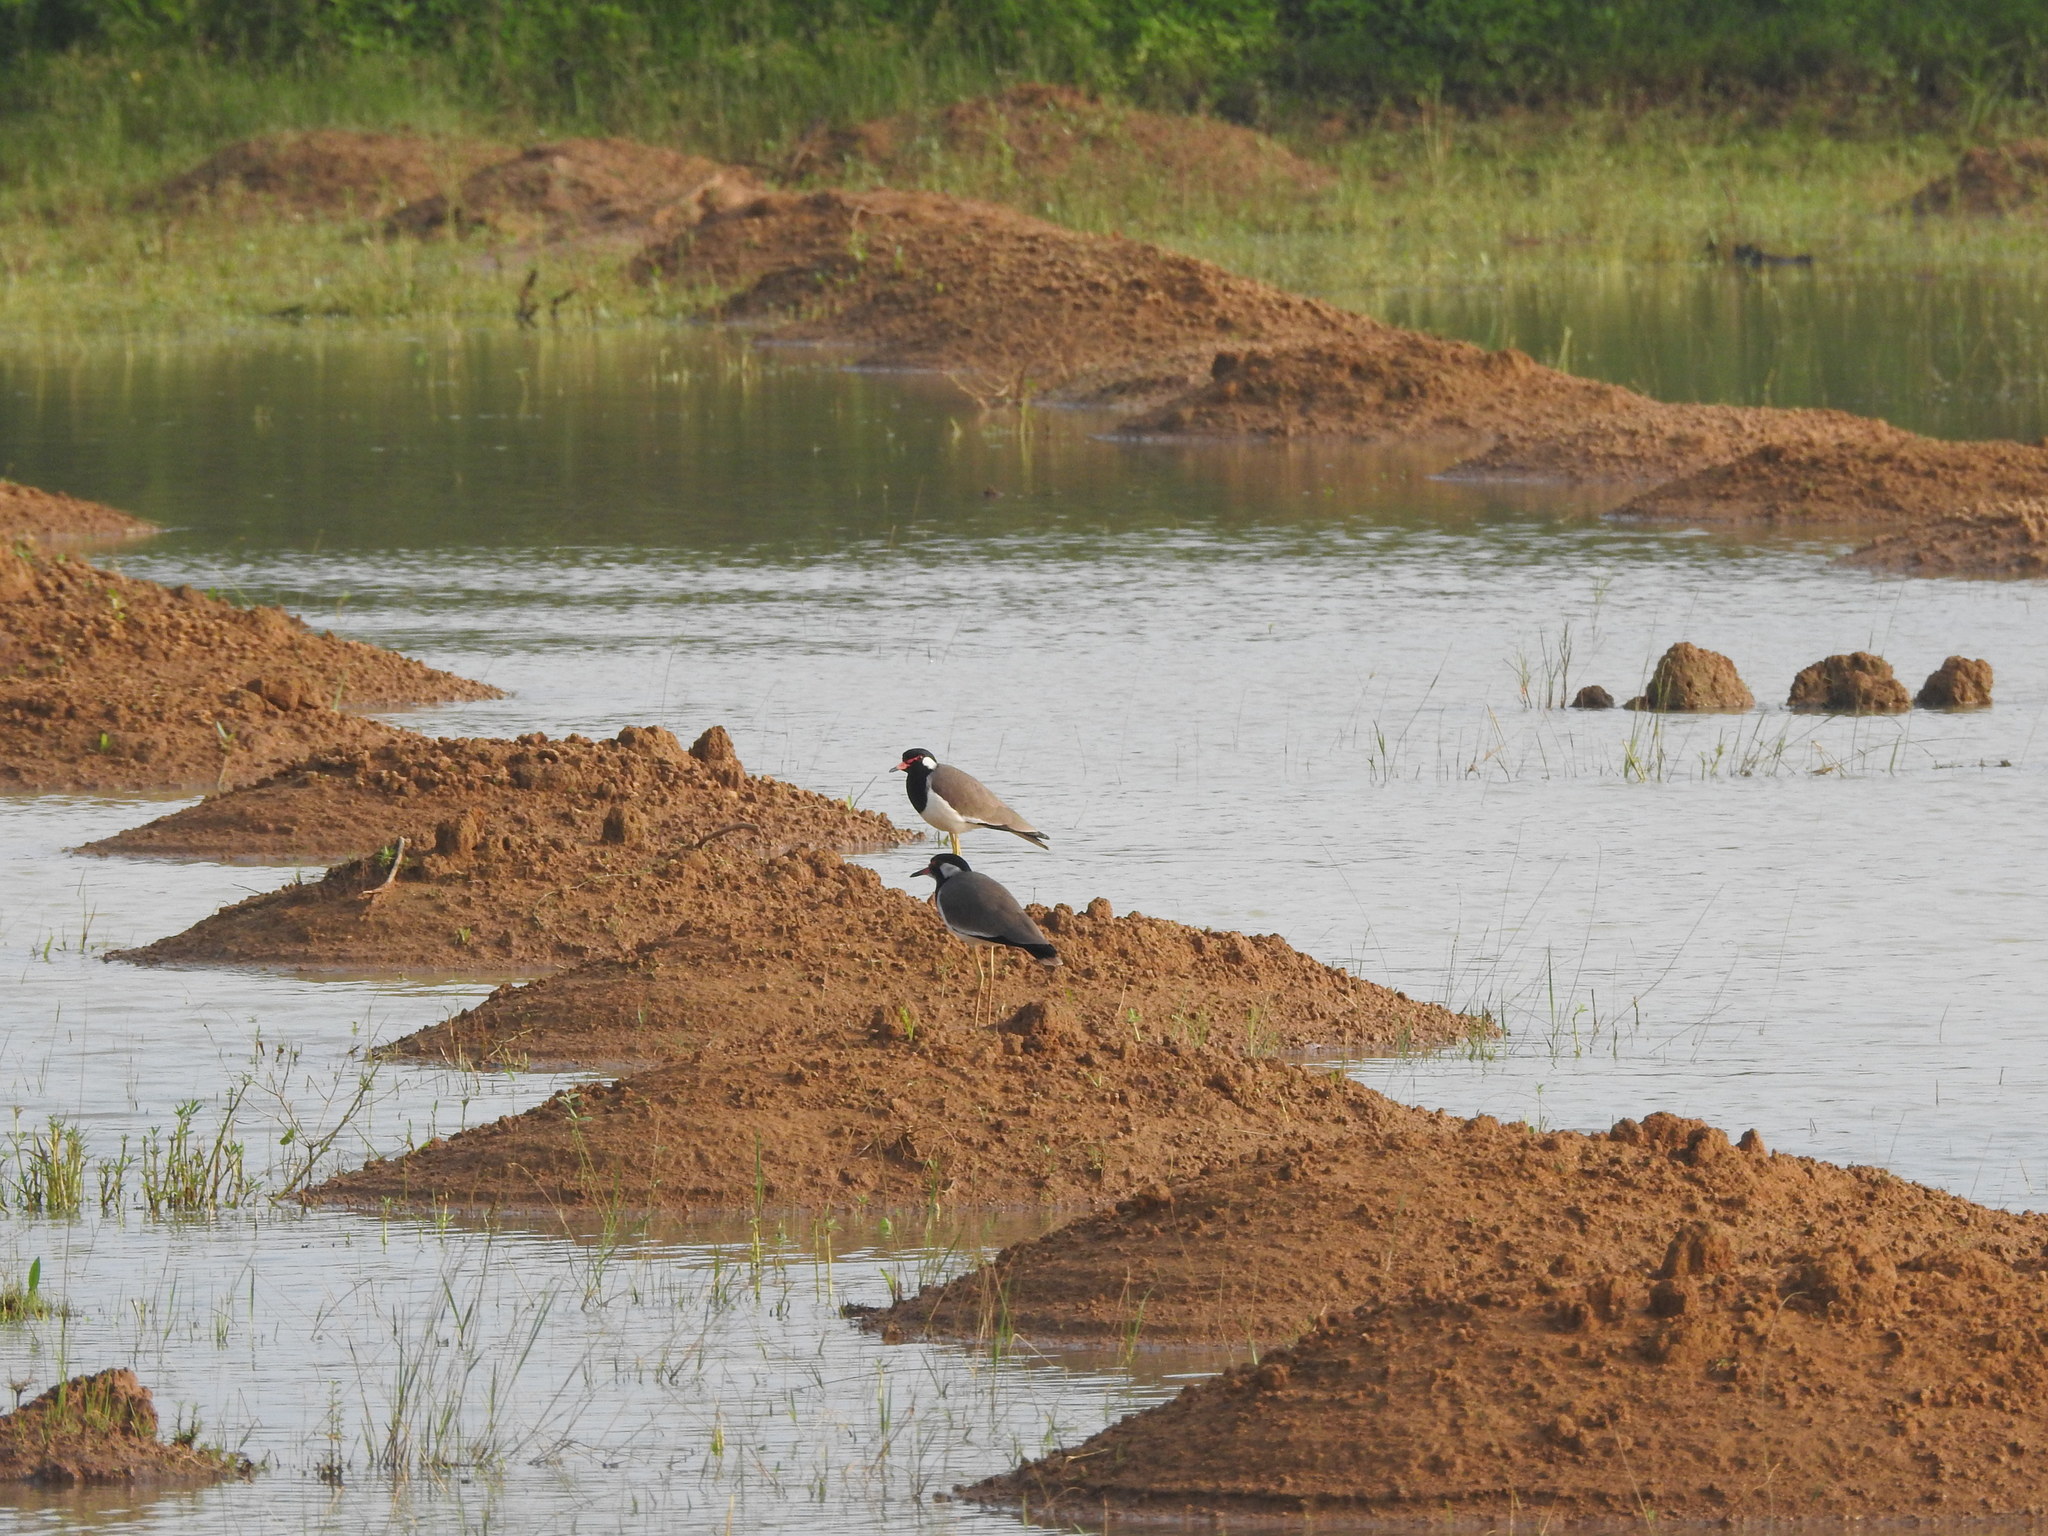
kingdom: Animalia
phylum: Chordata
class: Aves
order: Charadriiformes
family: Charadriidae
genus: Vanellus
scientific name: Vanellus indicus
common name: Red-wattled lapwing
